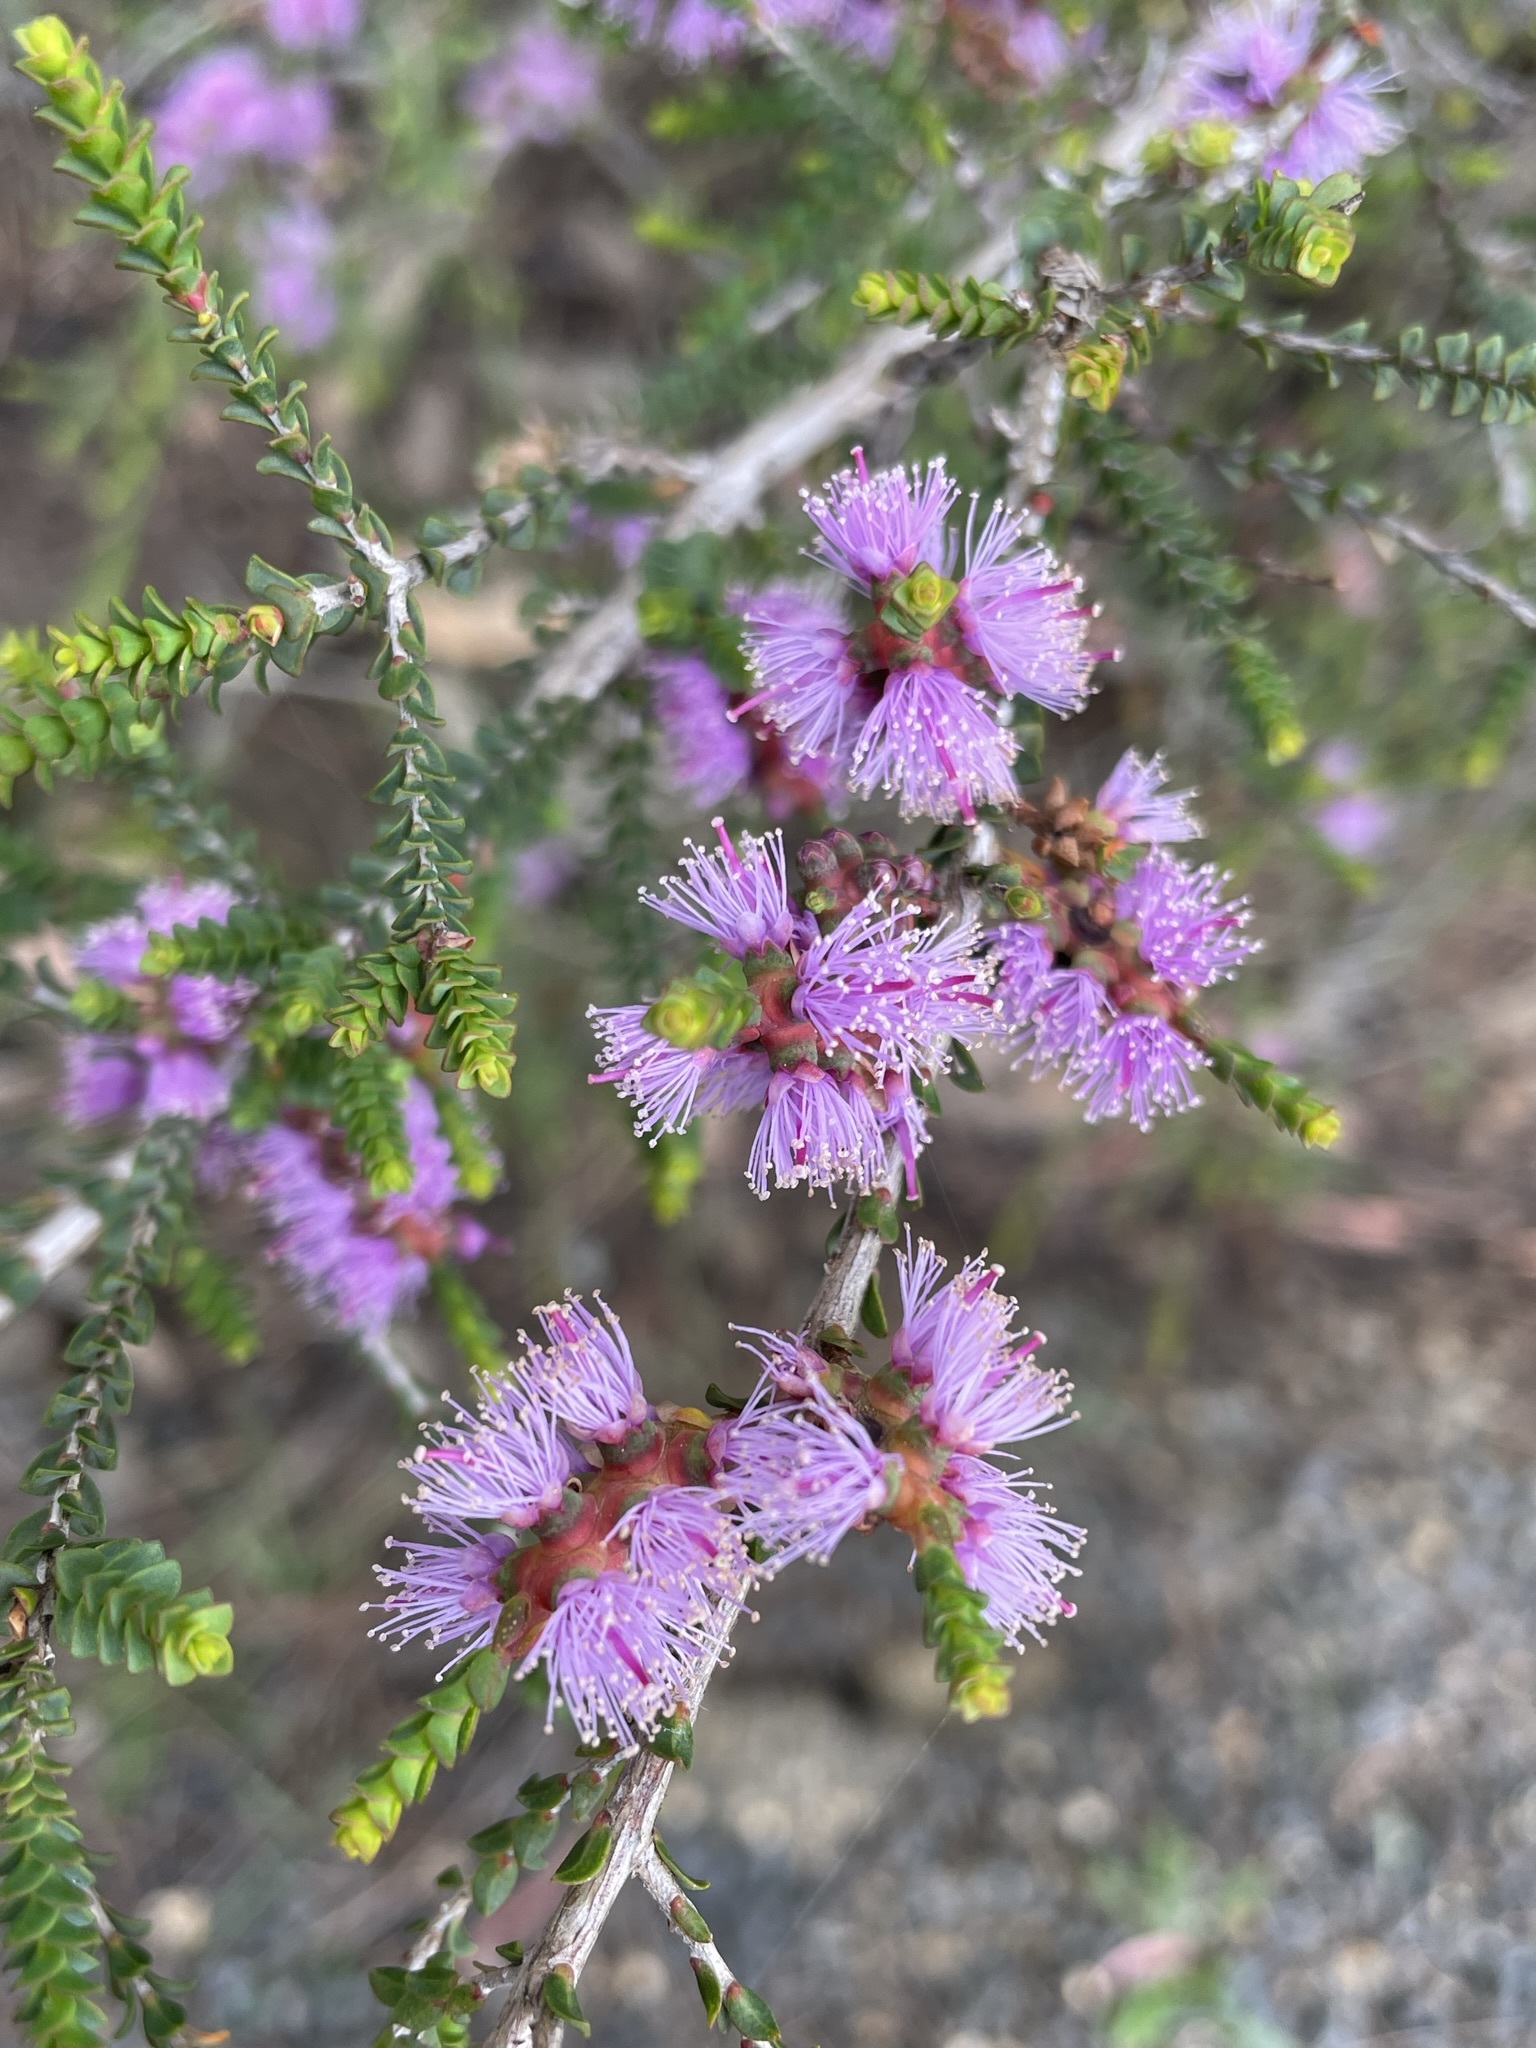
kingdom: Plantae
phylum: Tracheophyta
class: Magnoliopsida
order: Myrtales
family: Myrtaceae
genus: Melaleuca
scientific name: Melaleuca gibbosa
